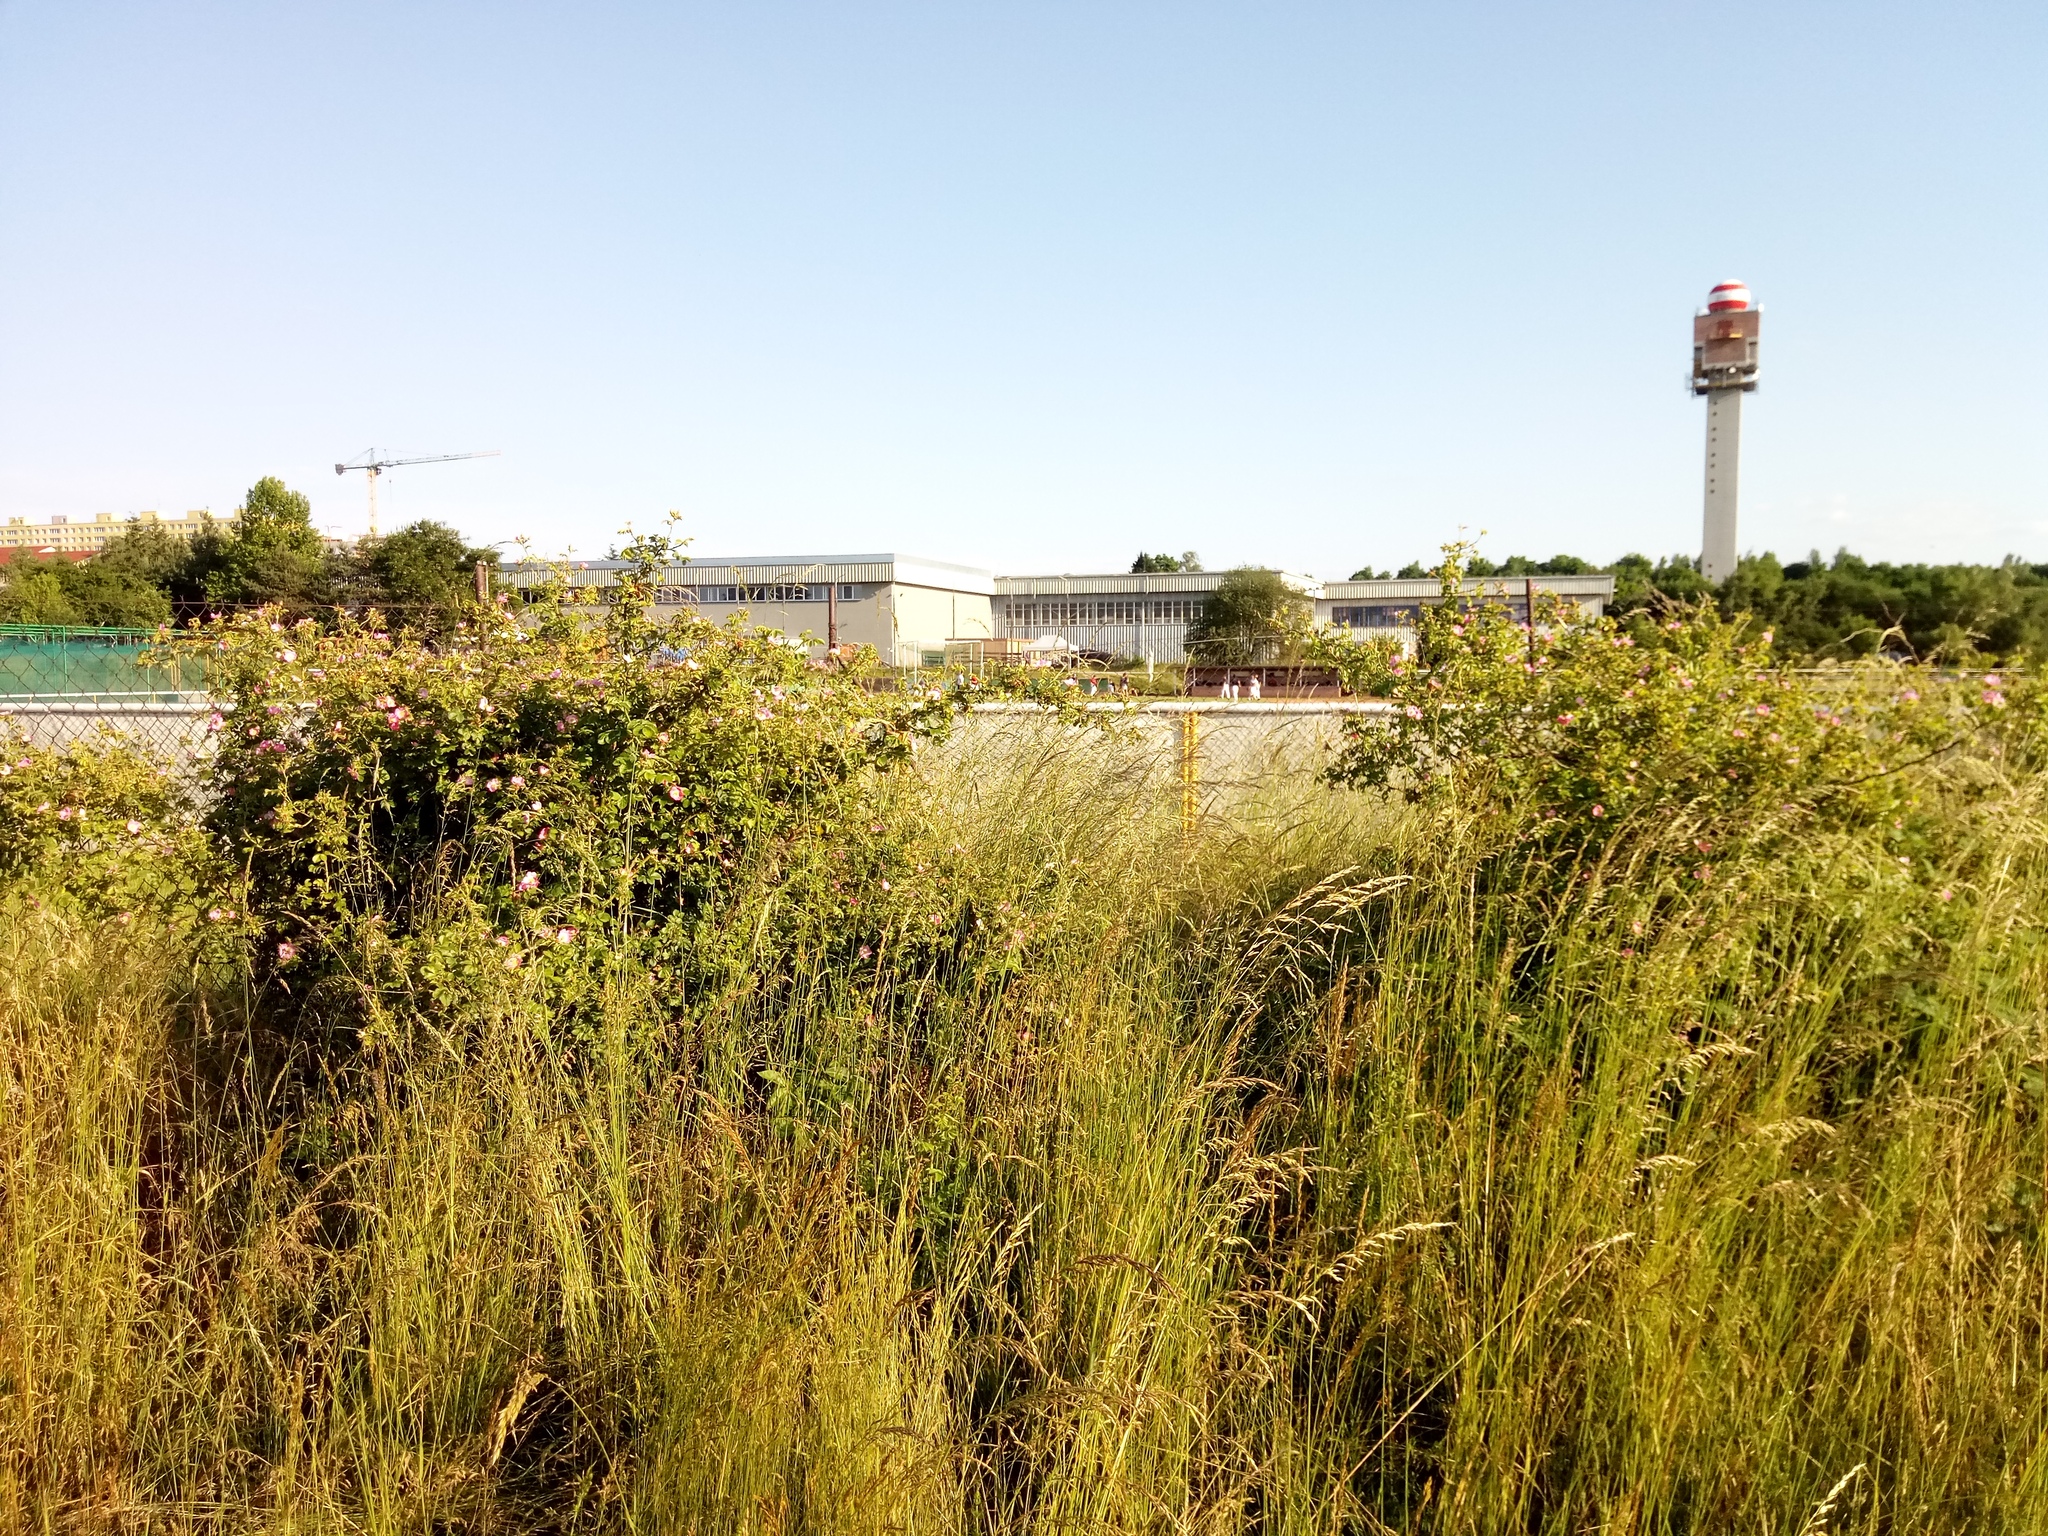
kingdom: Plantae
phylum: Tracheophyta
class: Magnoliopsida
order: Rosales
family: Rosaceae
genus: Rosa
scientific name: Rosa rubiginosa
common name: Sweet-briar
